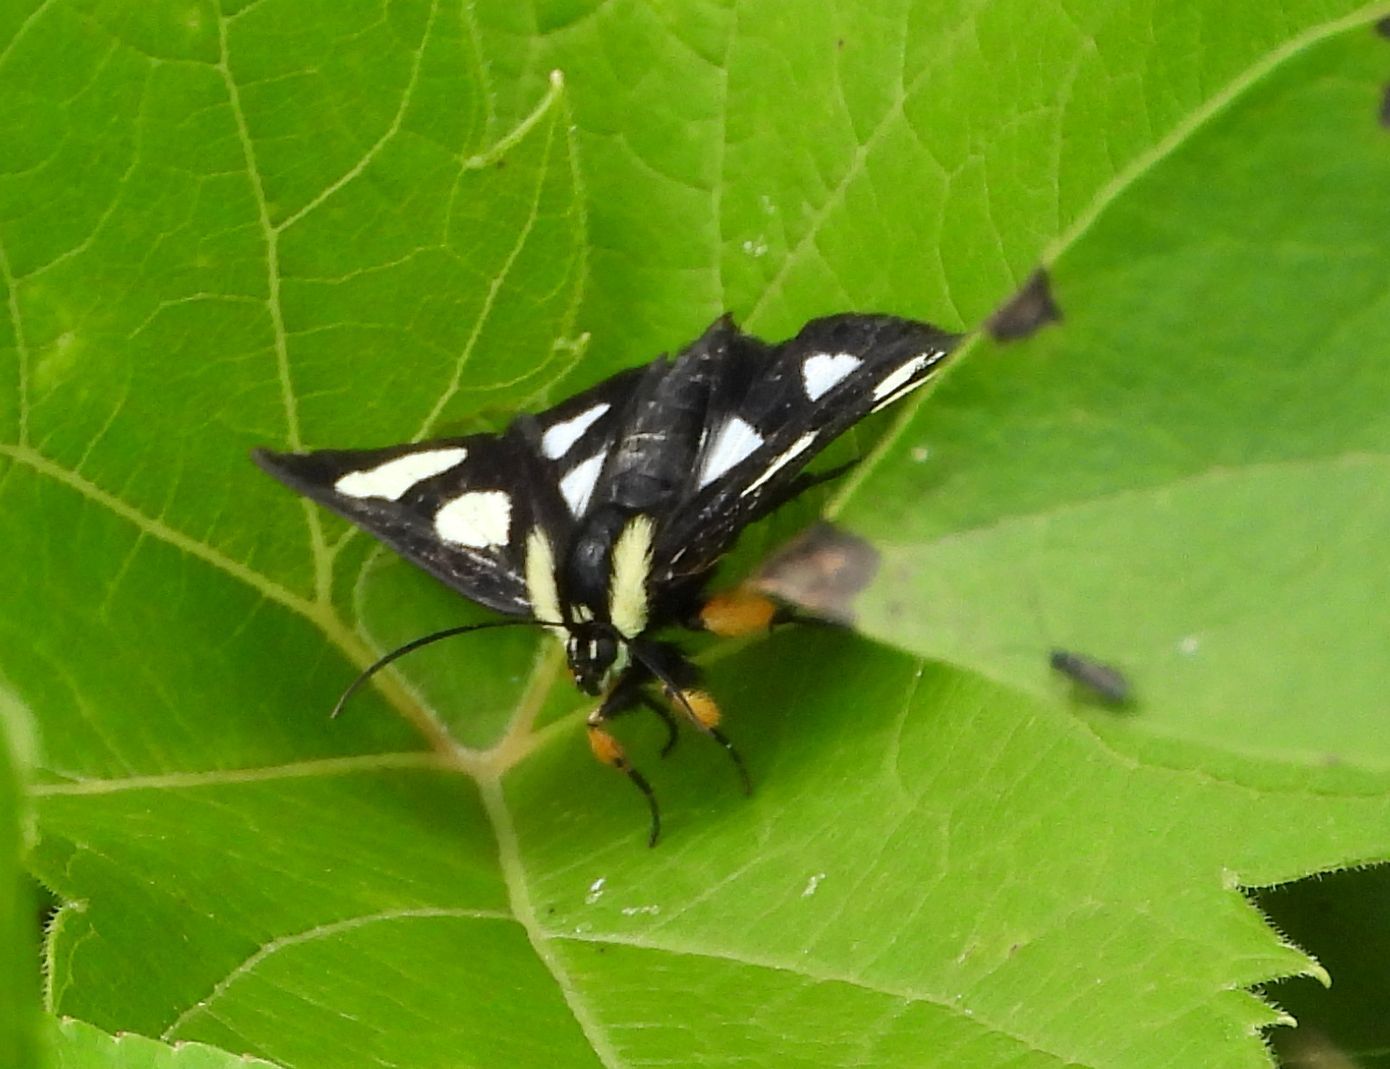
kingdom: Animalia
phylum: Arthropoda
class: Insecta
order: Lepidoptera
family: Noctuidae
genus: Alypia
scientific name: Alypia octomaculata
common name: Eight-spotted forester
